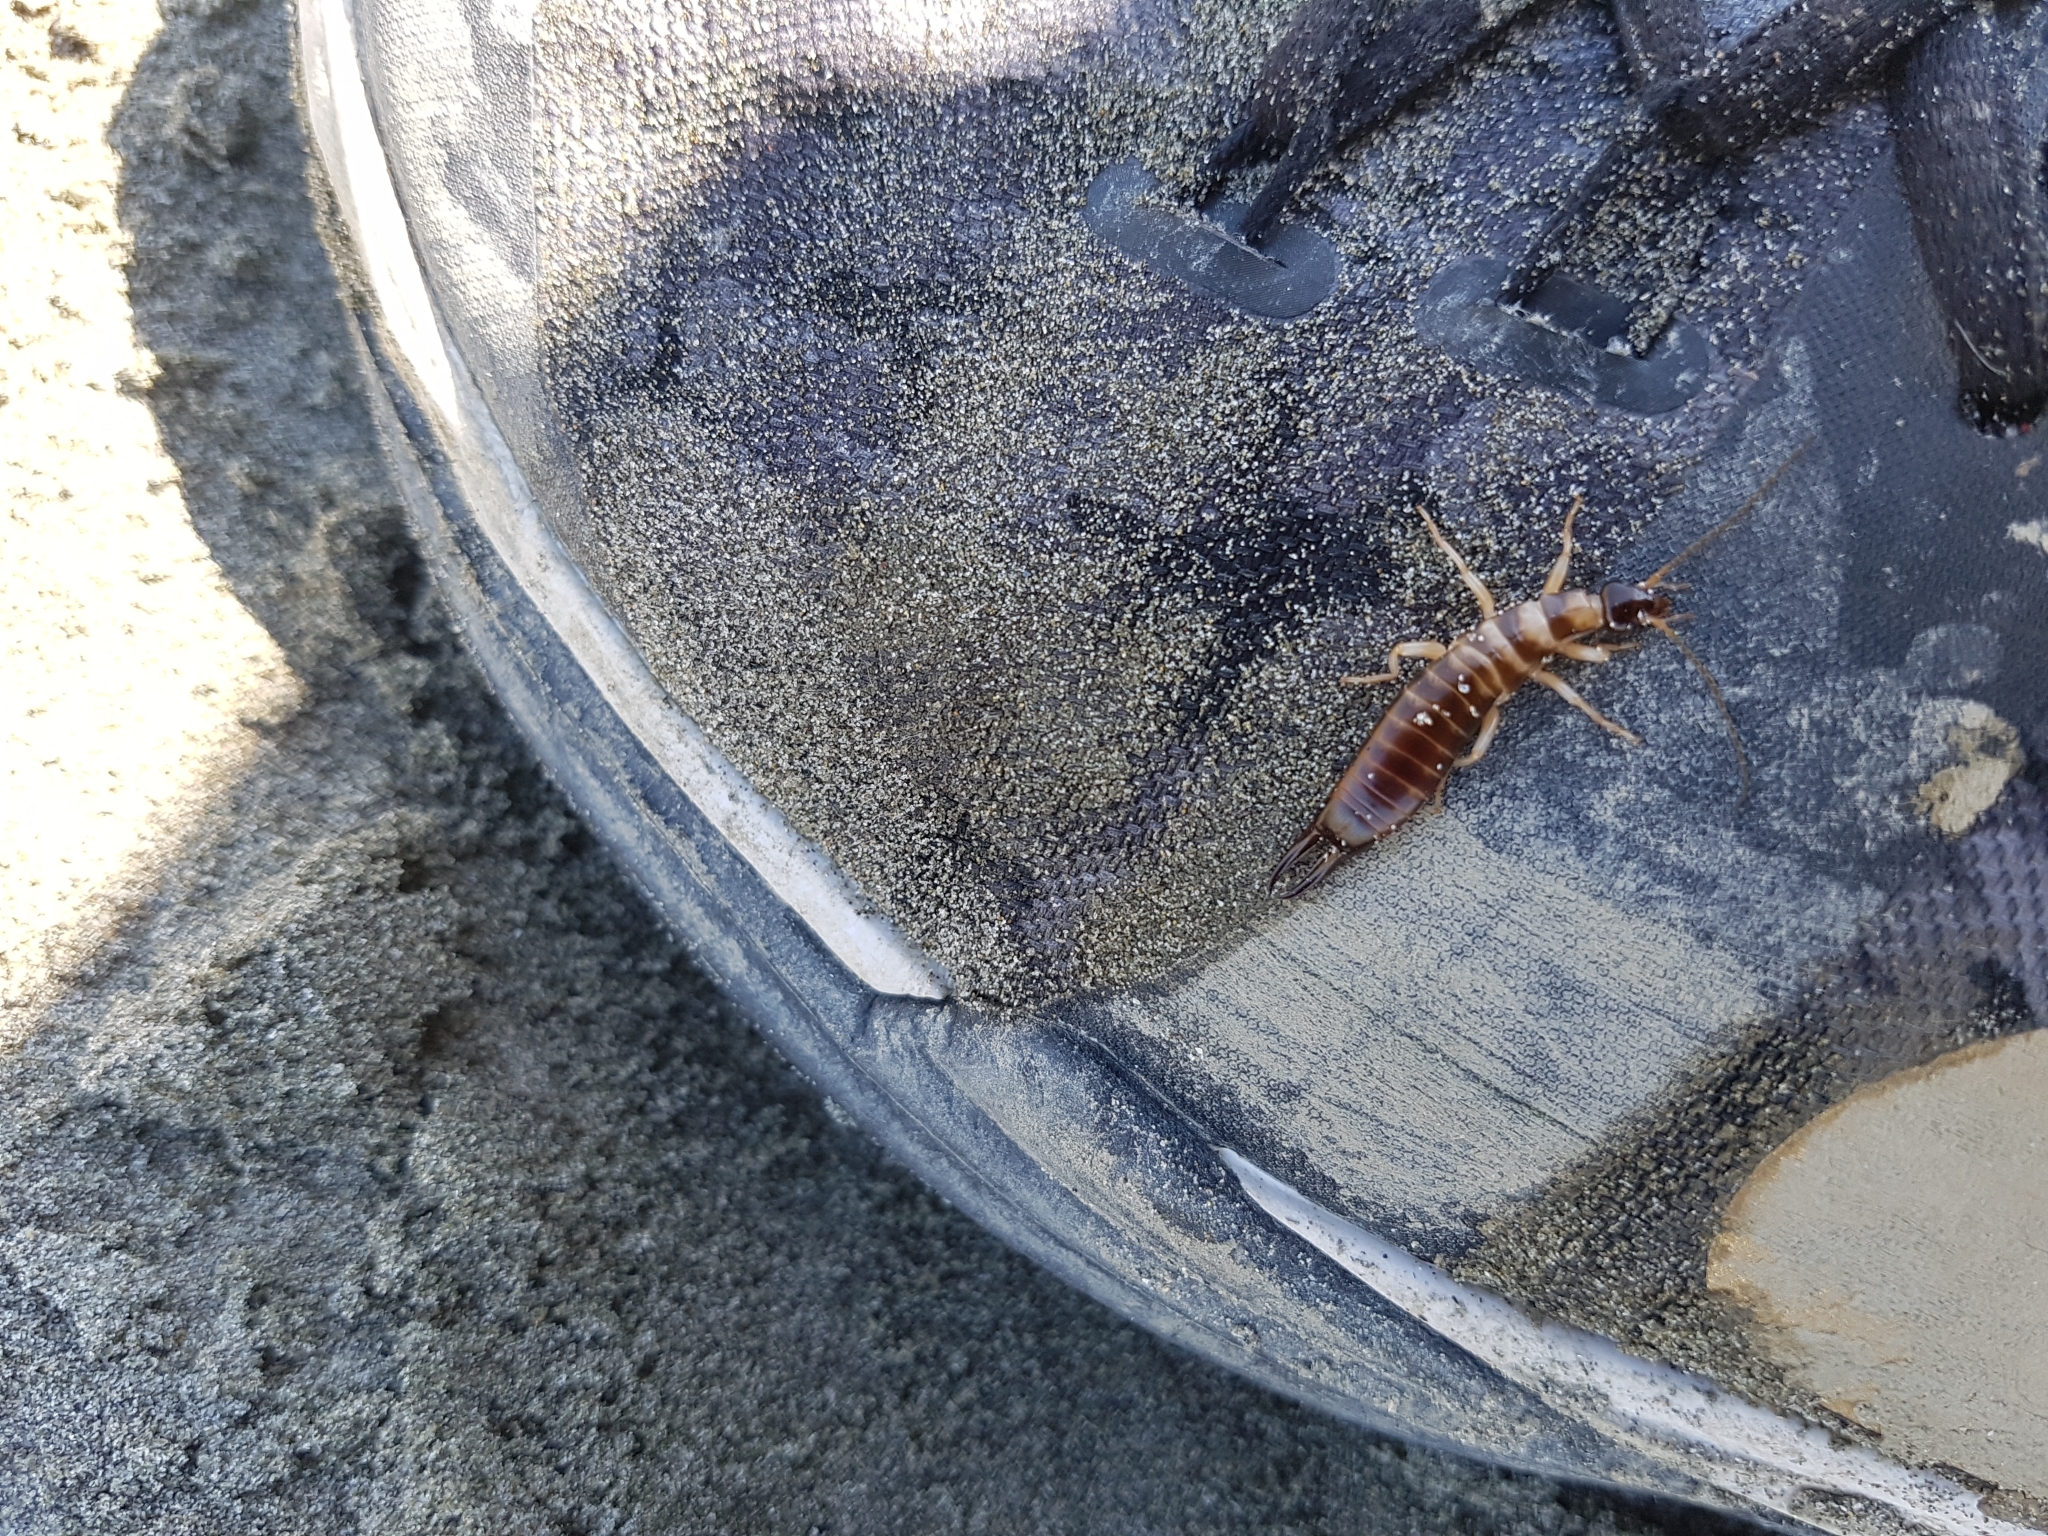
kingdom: Animalia
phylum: Arthropoda
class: Insecta
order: Dermaptera
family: Anisolabididae
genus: Anisolabis
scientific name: Anisolabis littorea
